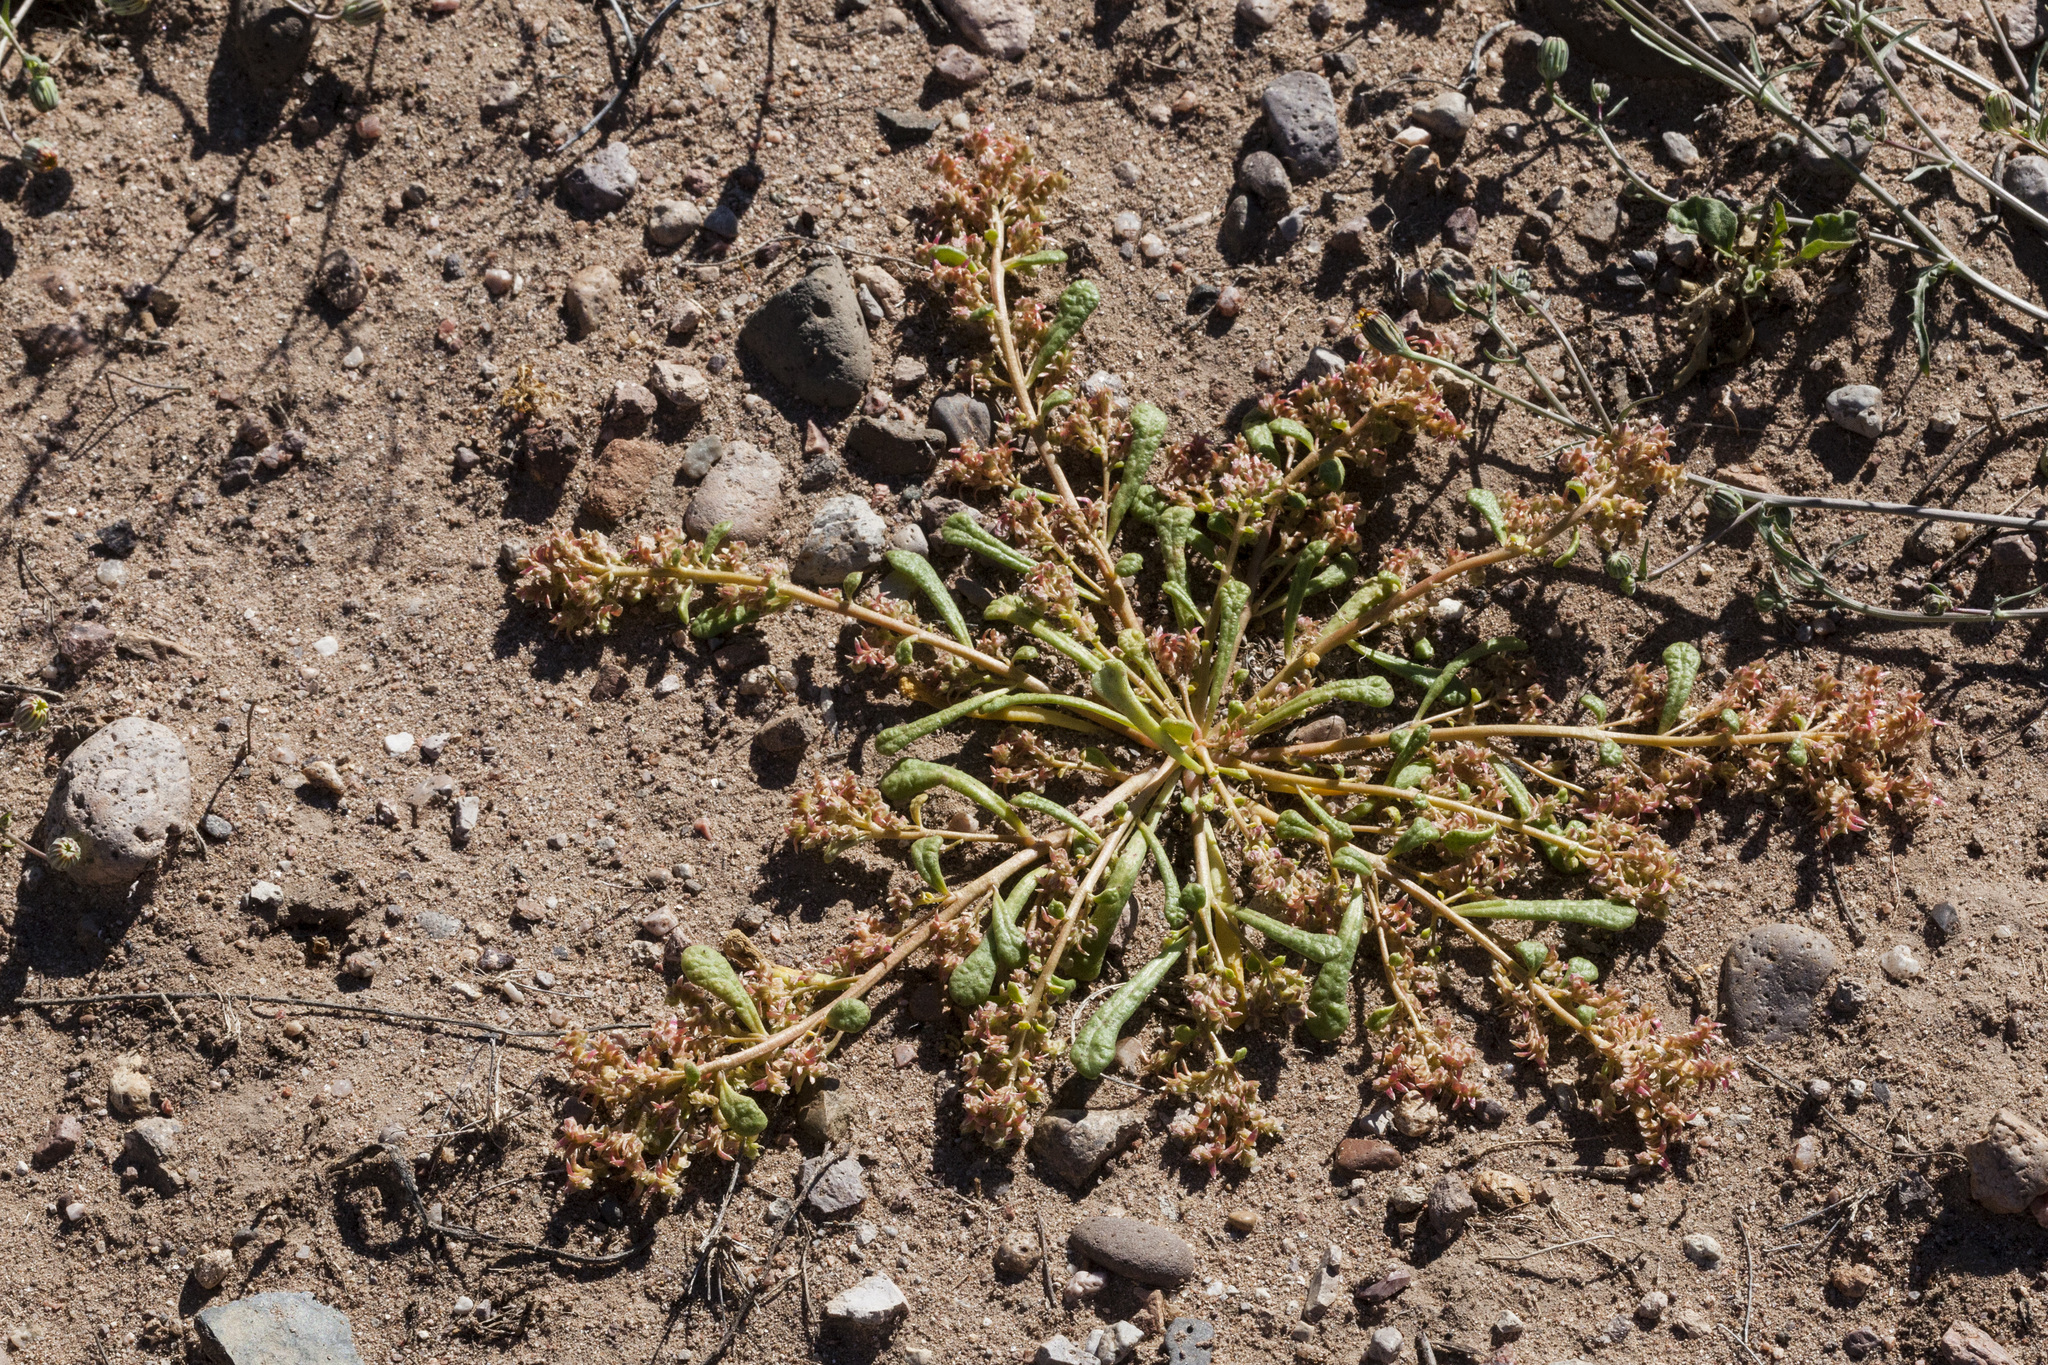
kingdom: Plantae
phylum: Tracheophyta
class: Magnoliopsida
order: Caryophyllales
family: Montiaceae
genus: Calyptridium
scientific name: Calyptridium monandrum
